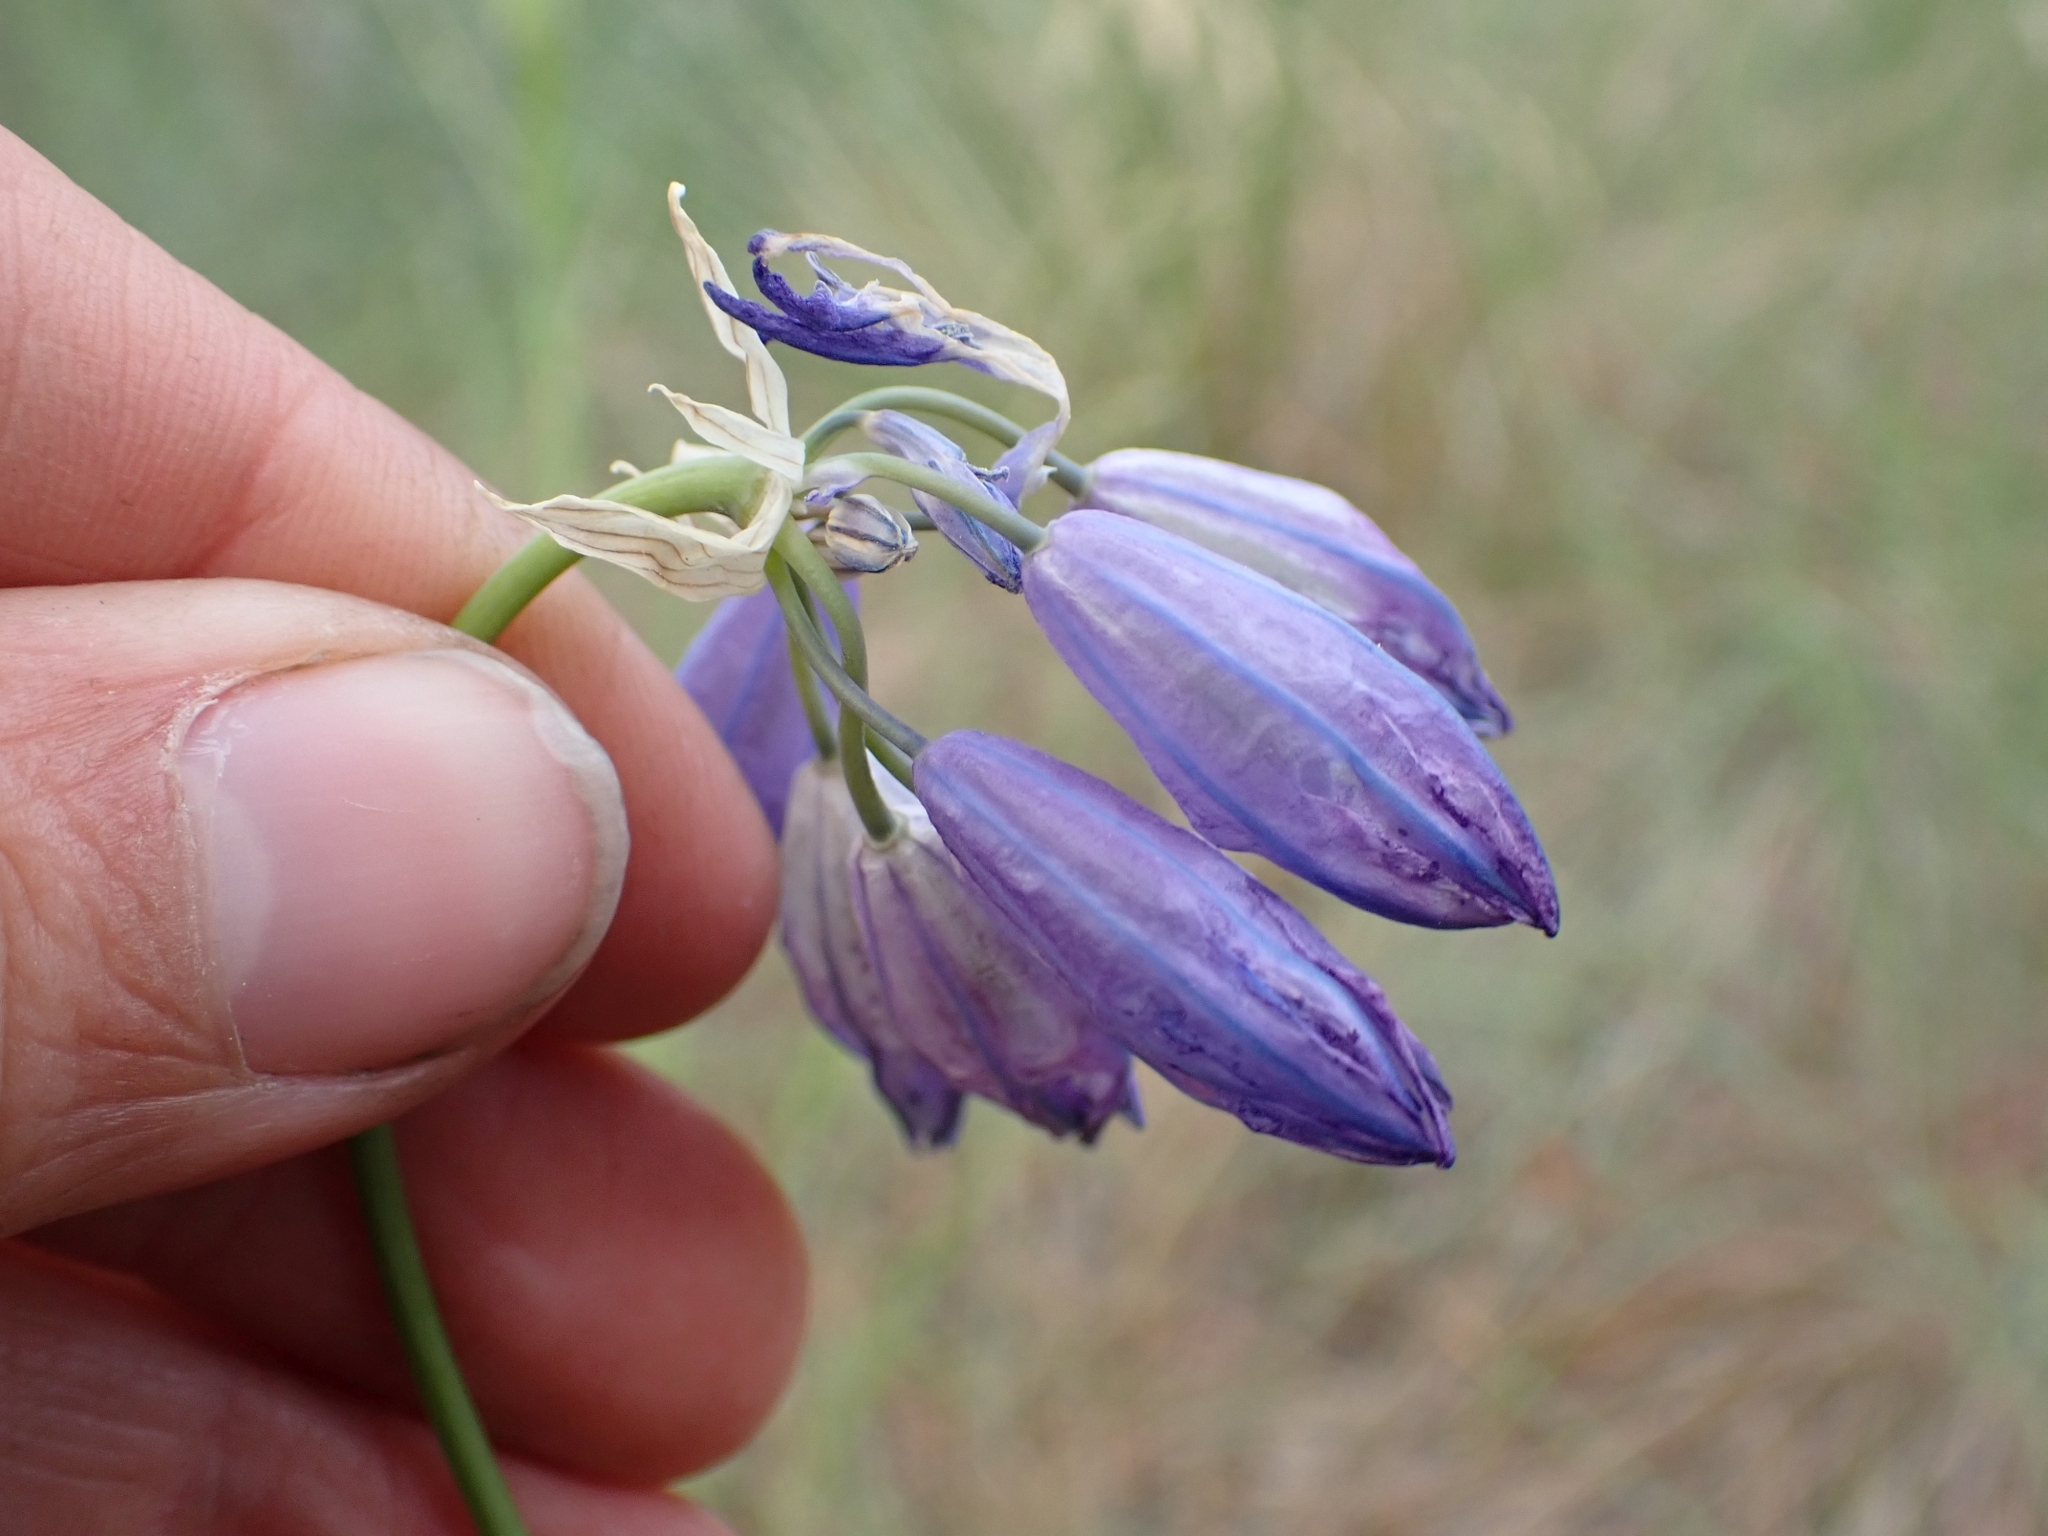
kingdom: Plantae
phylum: Tracheophyta
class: Liliopsida
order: Asparagales
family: Asparagaceae
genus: Triteleia
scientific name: Triteleia grandiflora
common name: Wild hyacinth
